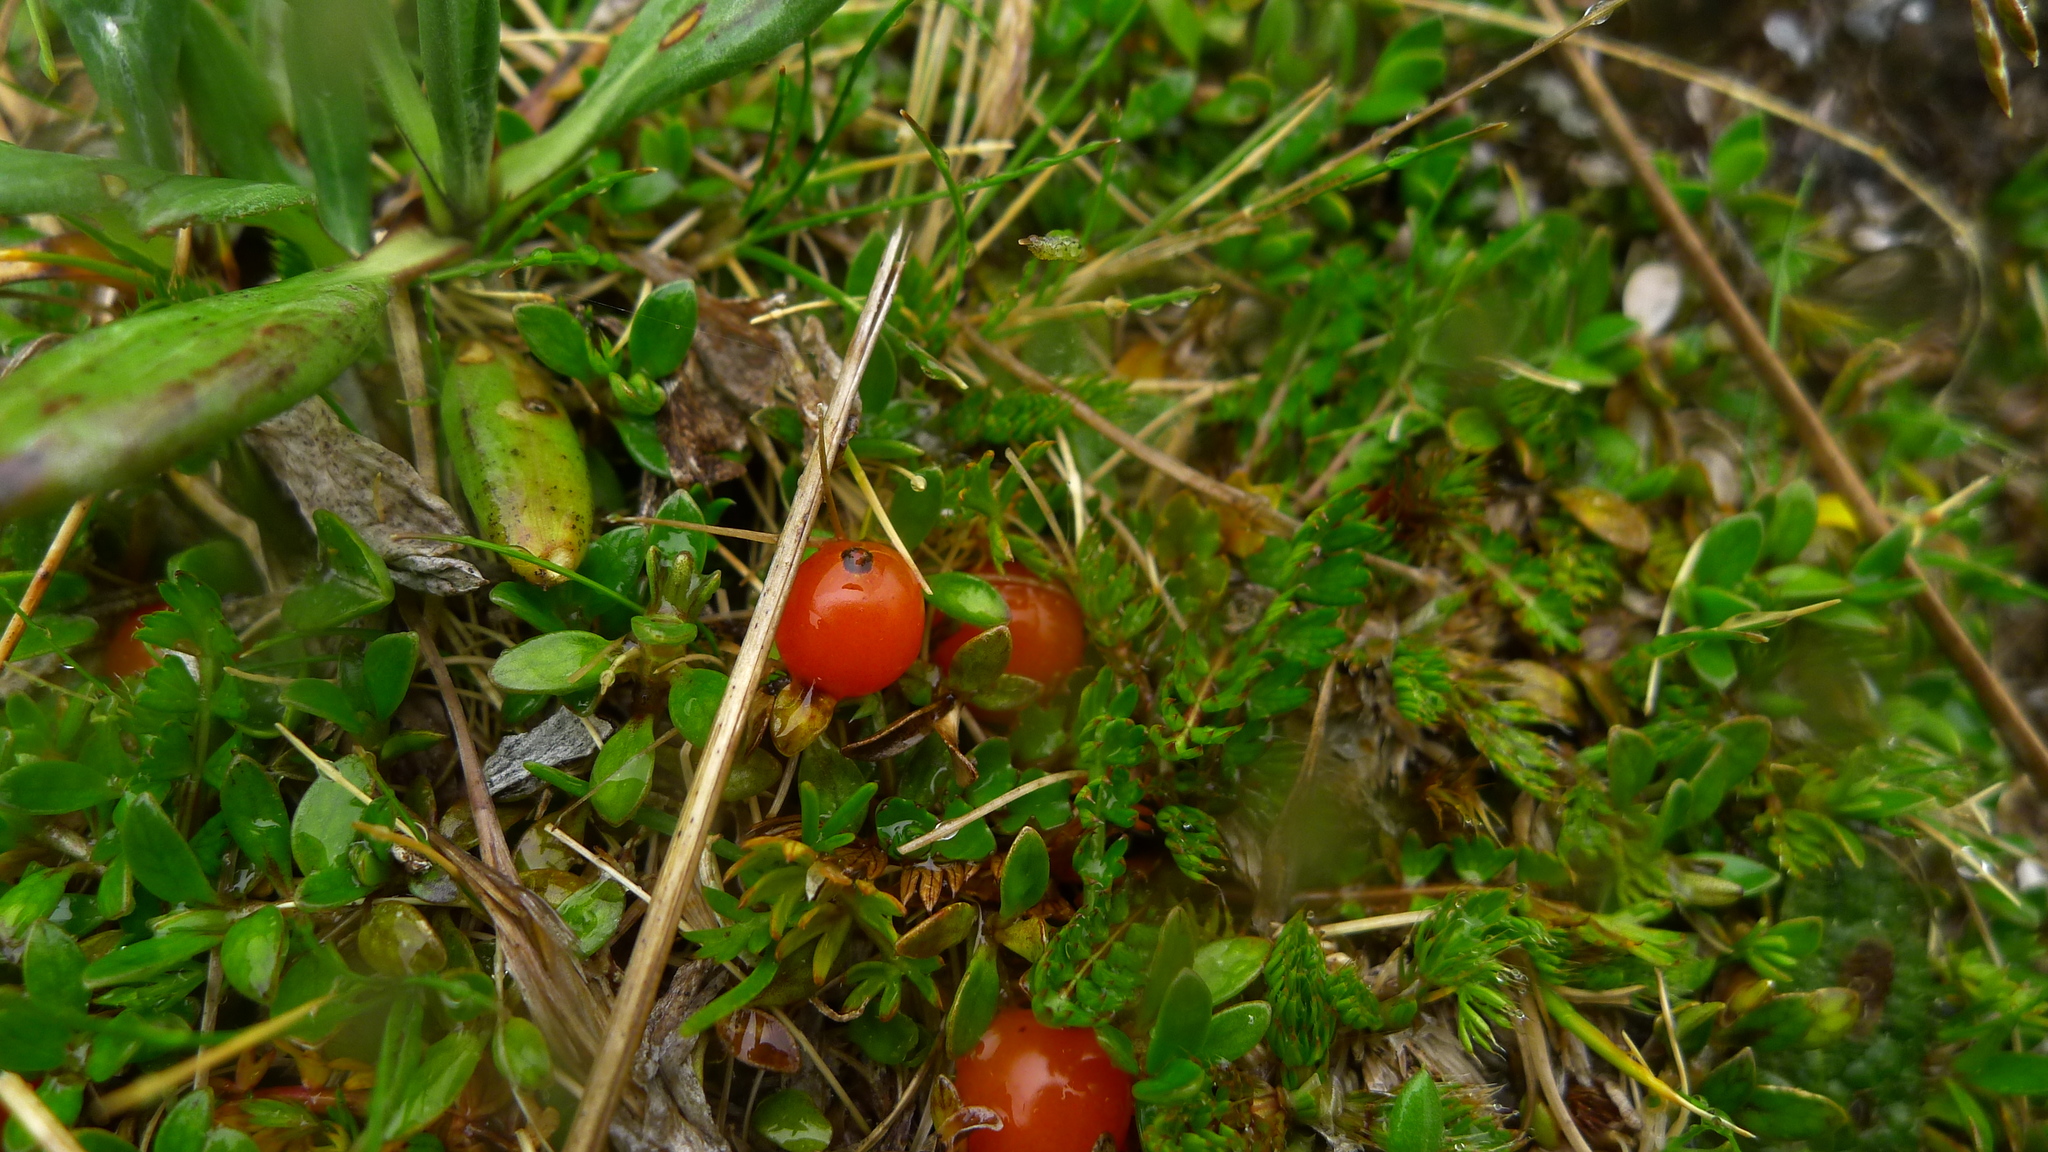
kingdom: Plantae
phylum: Tracheophyta
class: Magnoliopsida
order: Gentianales
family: Rubiaceae
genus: Coprosma
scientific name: Coprosma perpusilla
